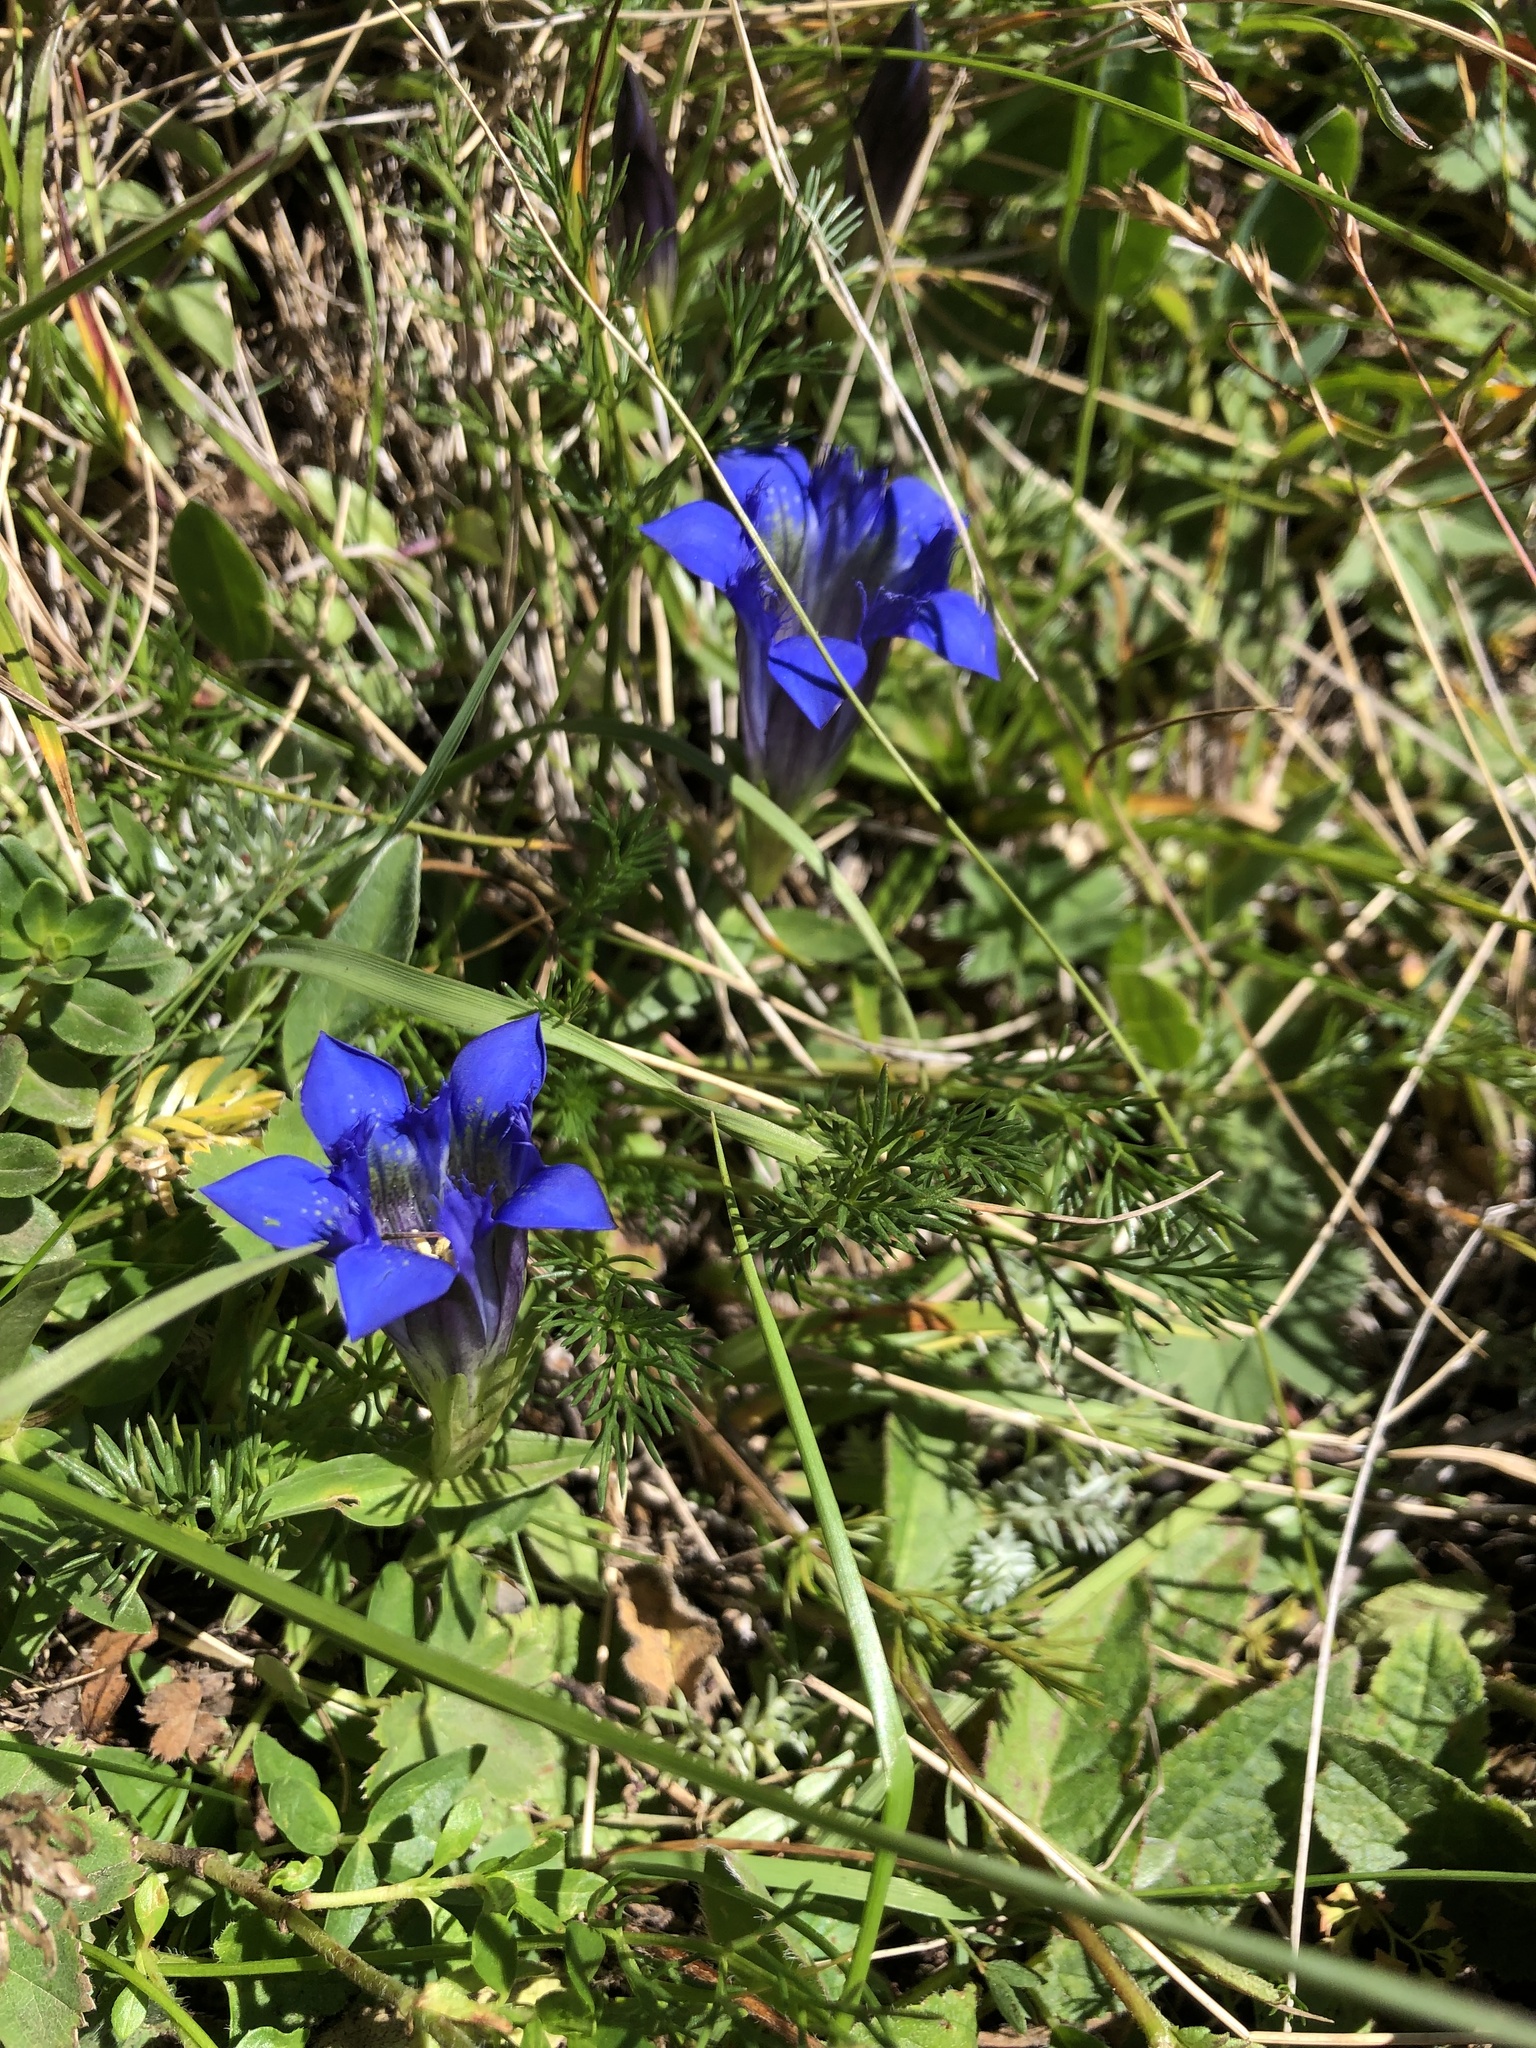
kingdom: Plantae
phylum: Tracheophyta
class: Magnoliopsida
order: Gentianales
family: Gentianaceae
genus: Gentiana
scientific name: Gentiana septemfida
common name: Crested gentian
